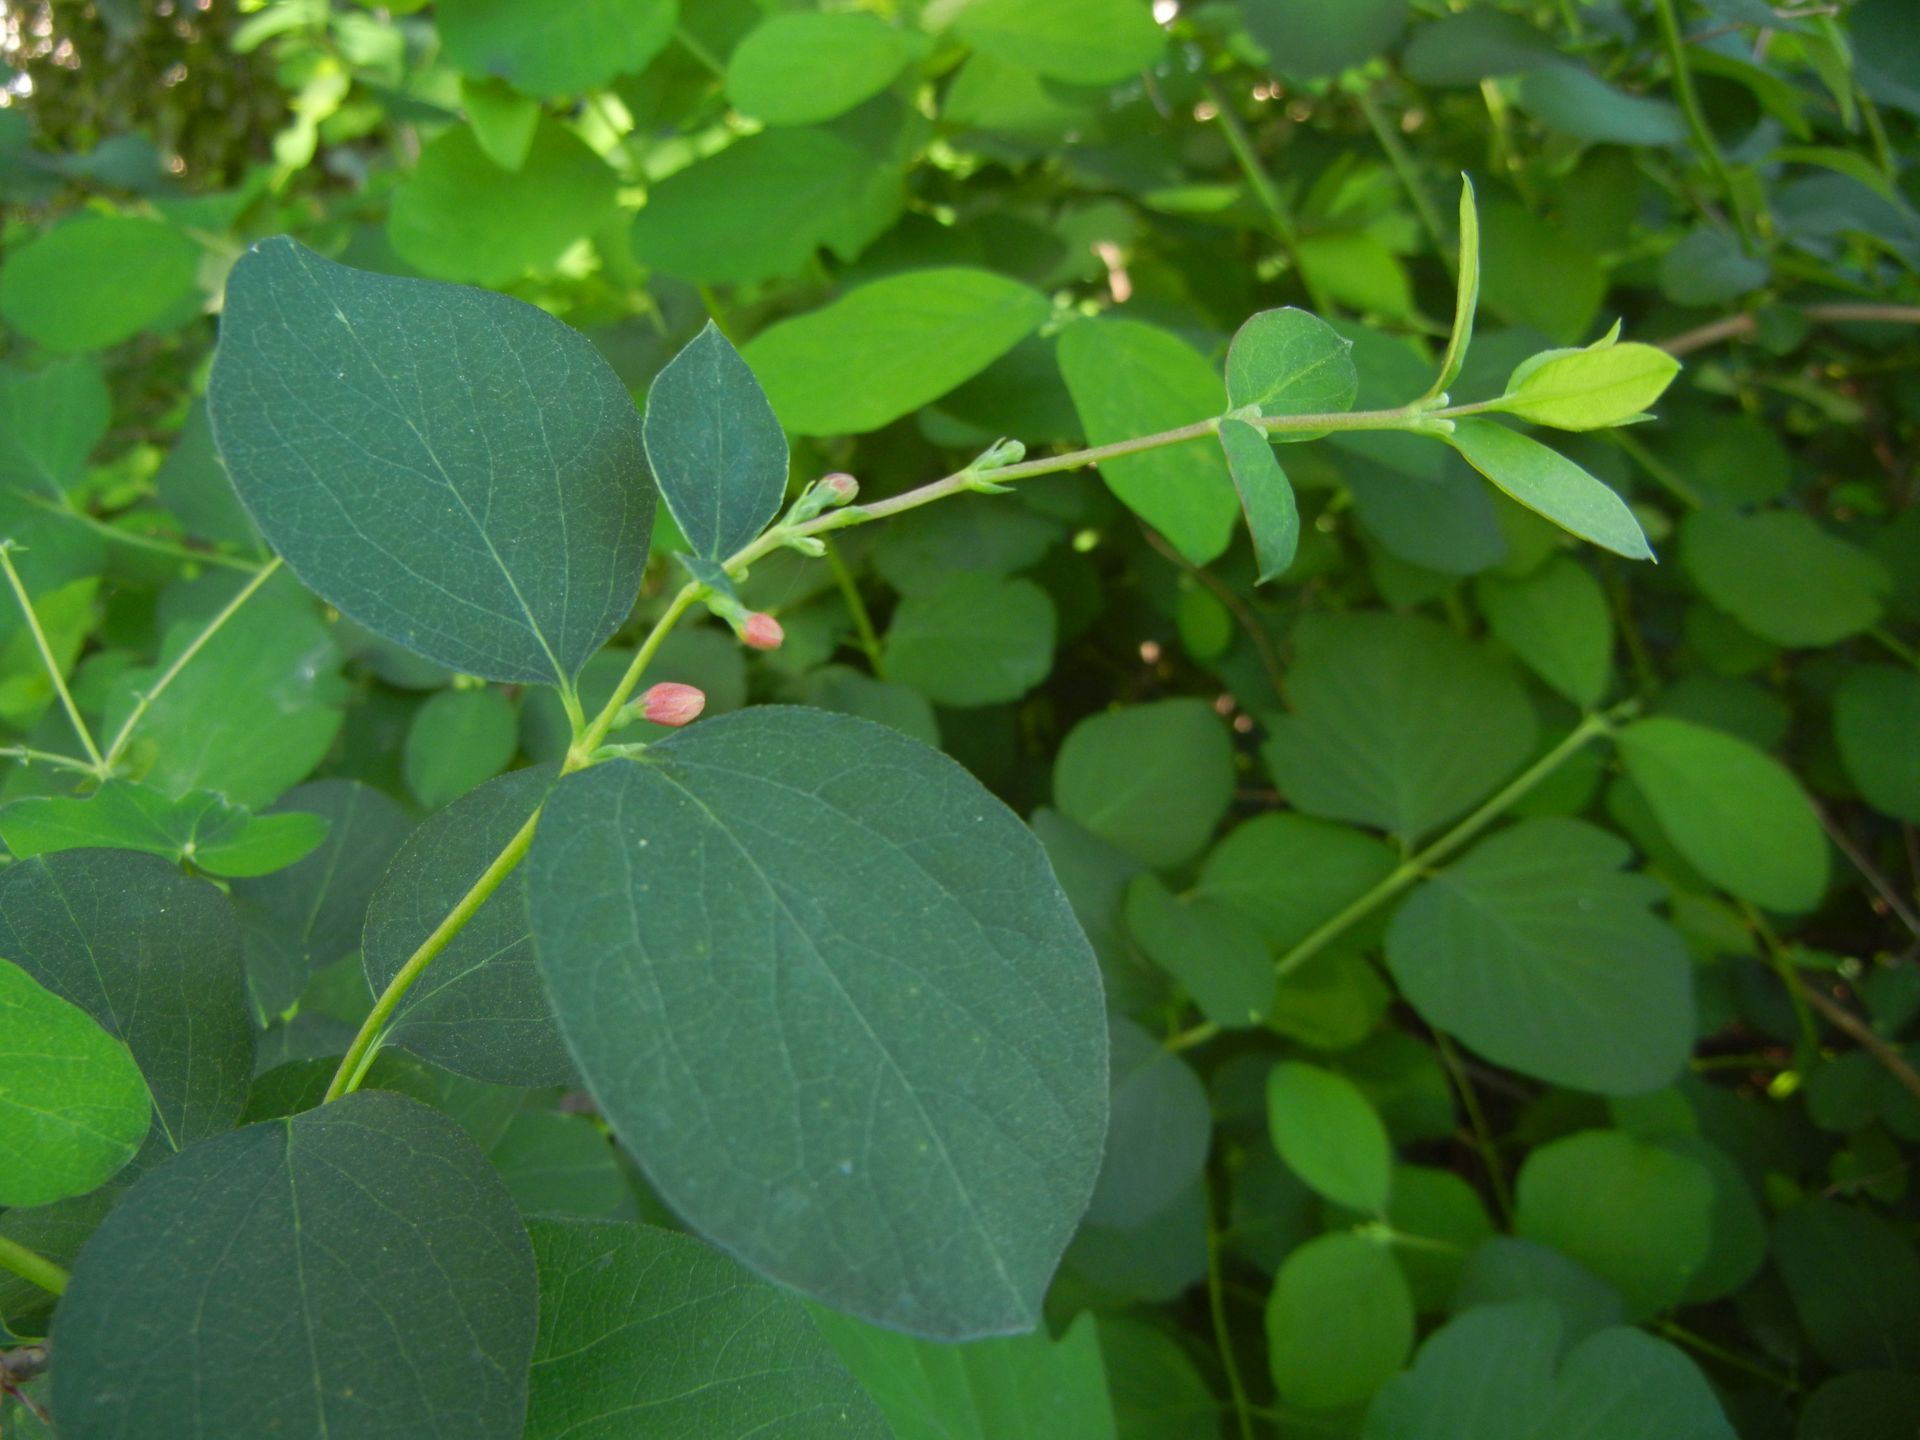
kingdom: Plantae
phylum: Tracheophyta
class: Magnoliopsida
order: Dipsacales
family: Caprifoliaceae
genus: Symphoricarpos
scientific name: Symphoricarpos albus
